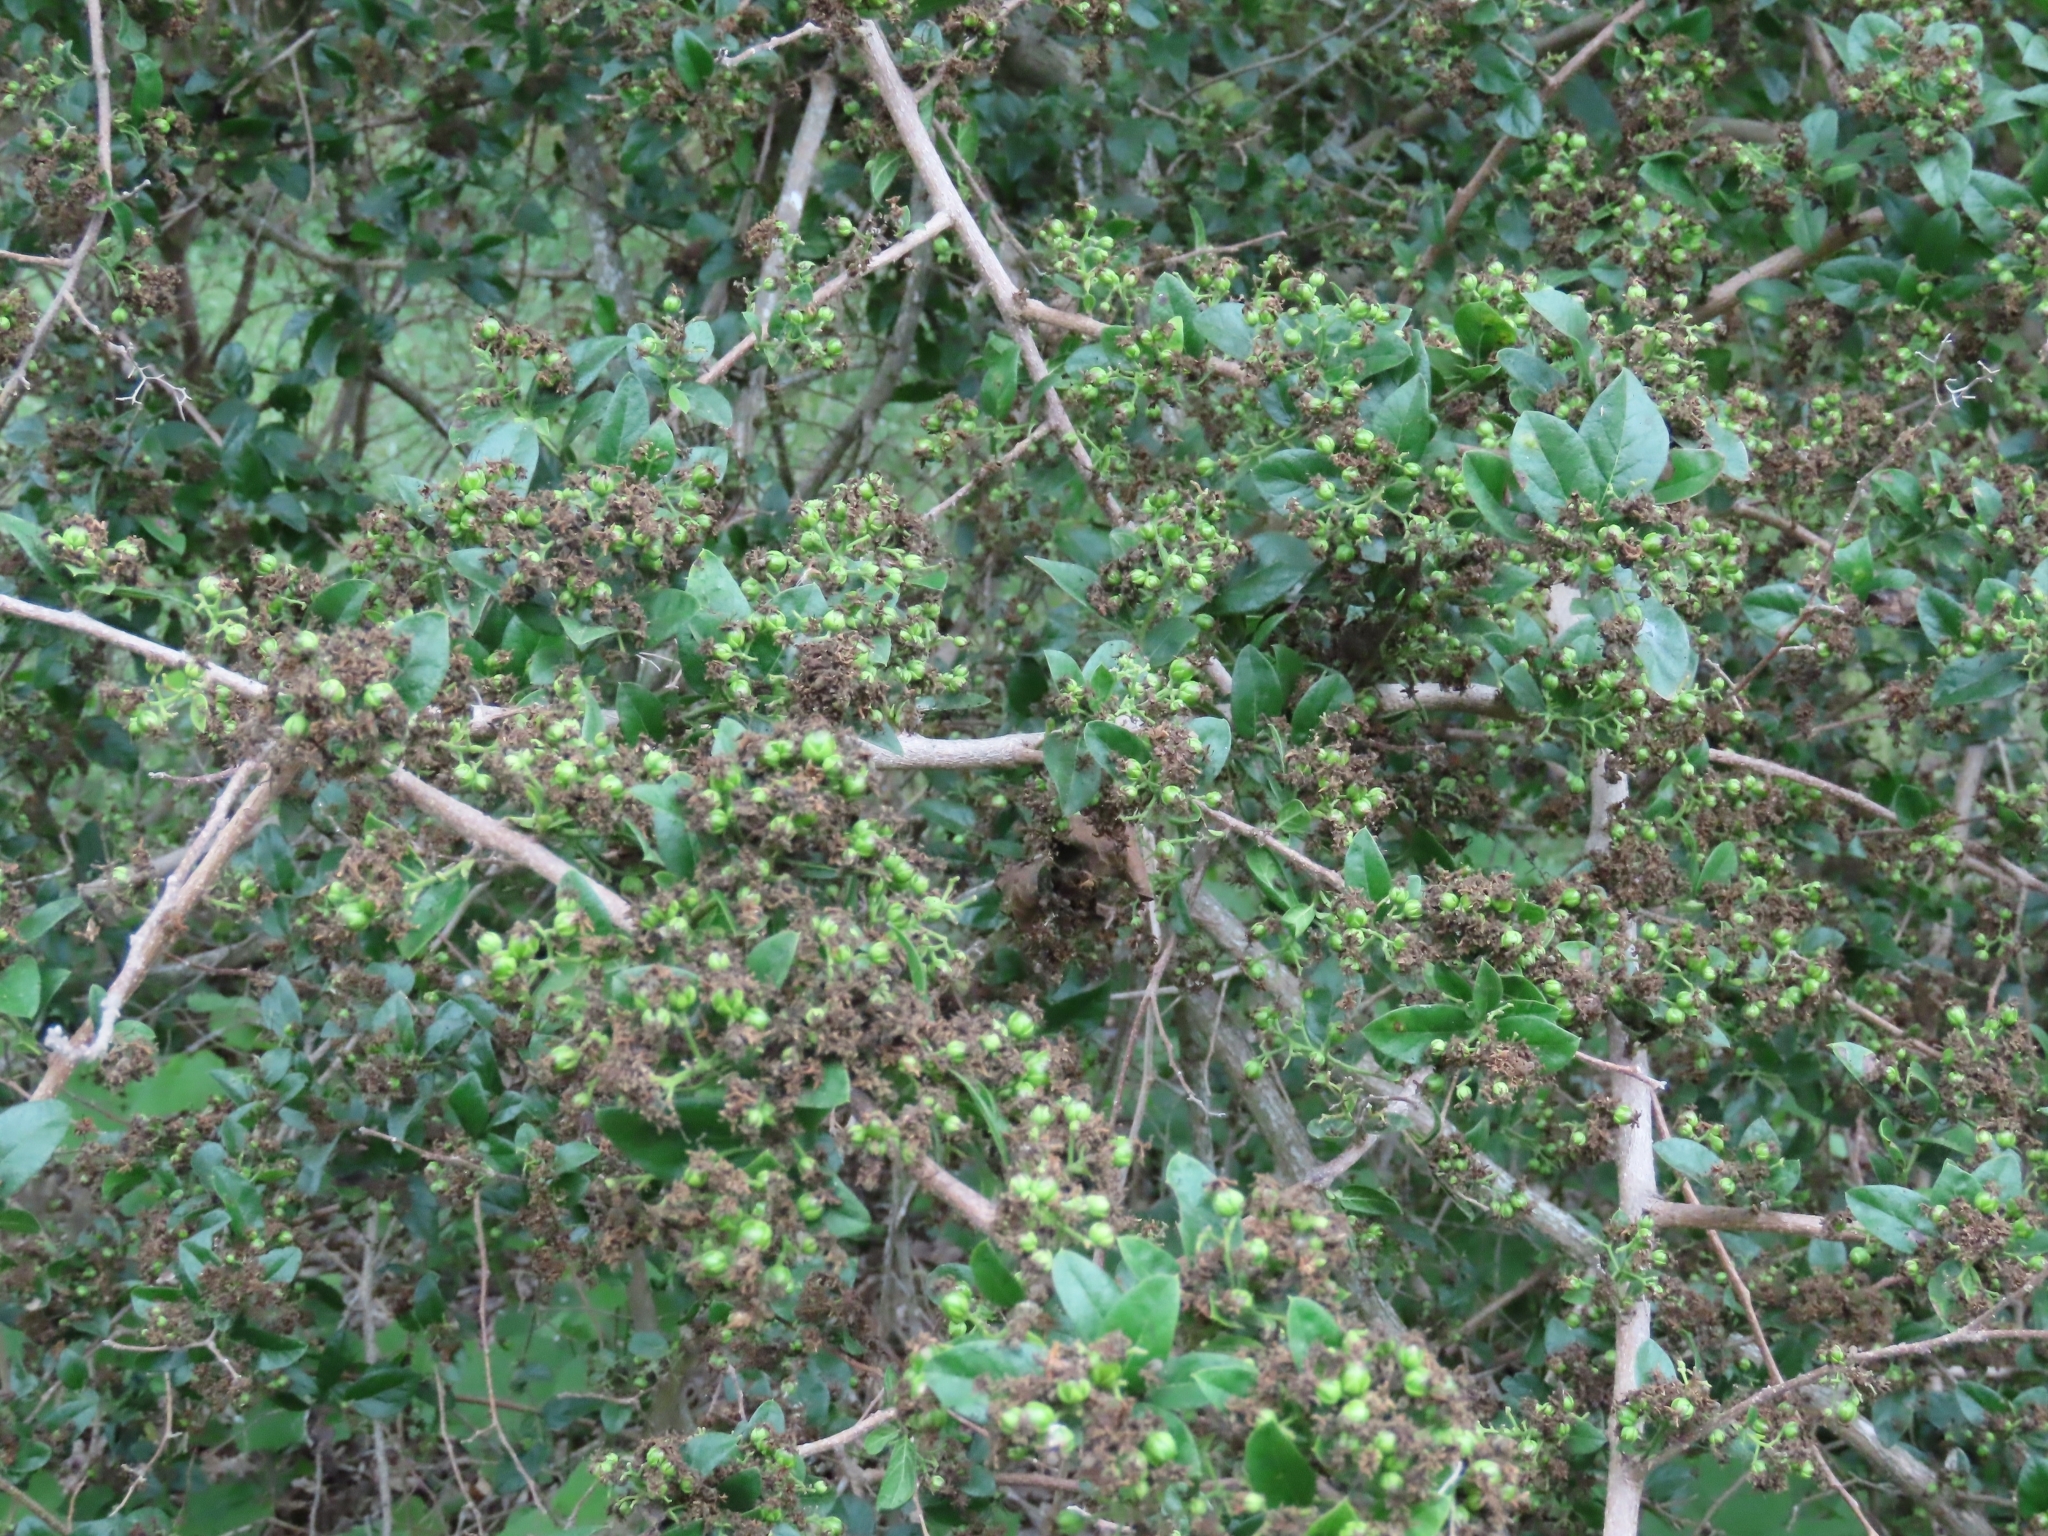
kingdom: Plantae
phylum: Tracheophyta
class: Magnoliopsida
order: Boraginales
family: Ehretiaceae
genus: Ehretia
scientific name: Ehretia anacua
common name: Sugarberry
